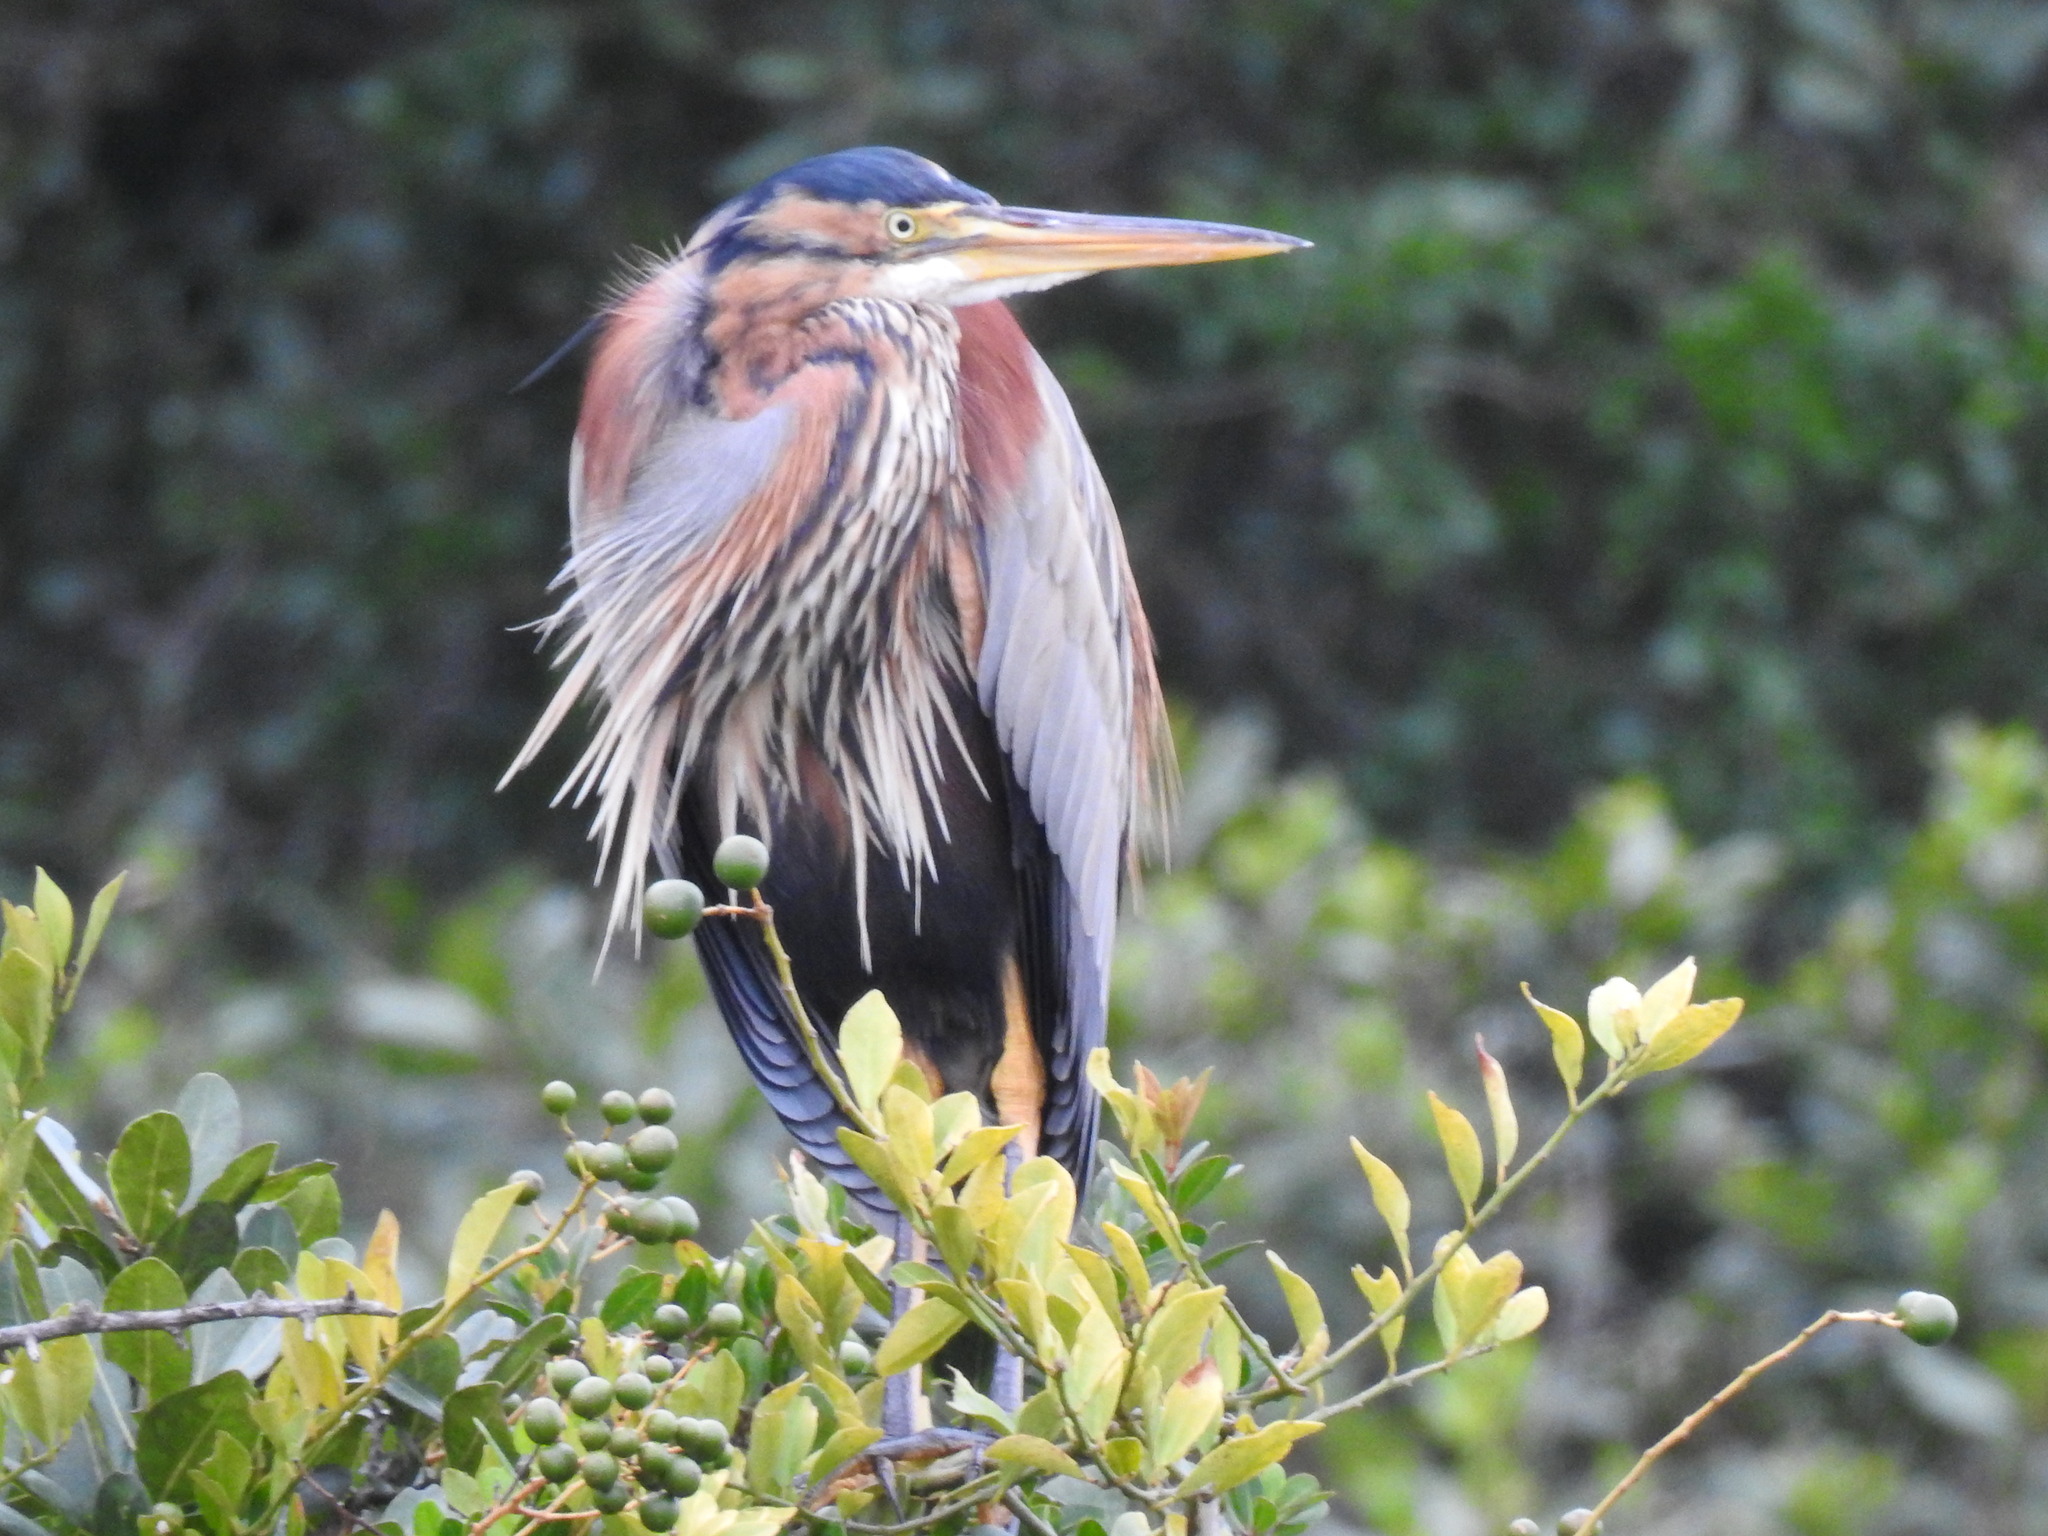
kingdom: Animalia
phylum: Chordata
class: Aves
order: Pelecaniformes
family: Ardeidae
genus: Ardea
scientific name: Ardea purpurea
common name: Purple heron
